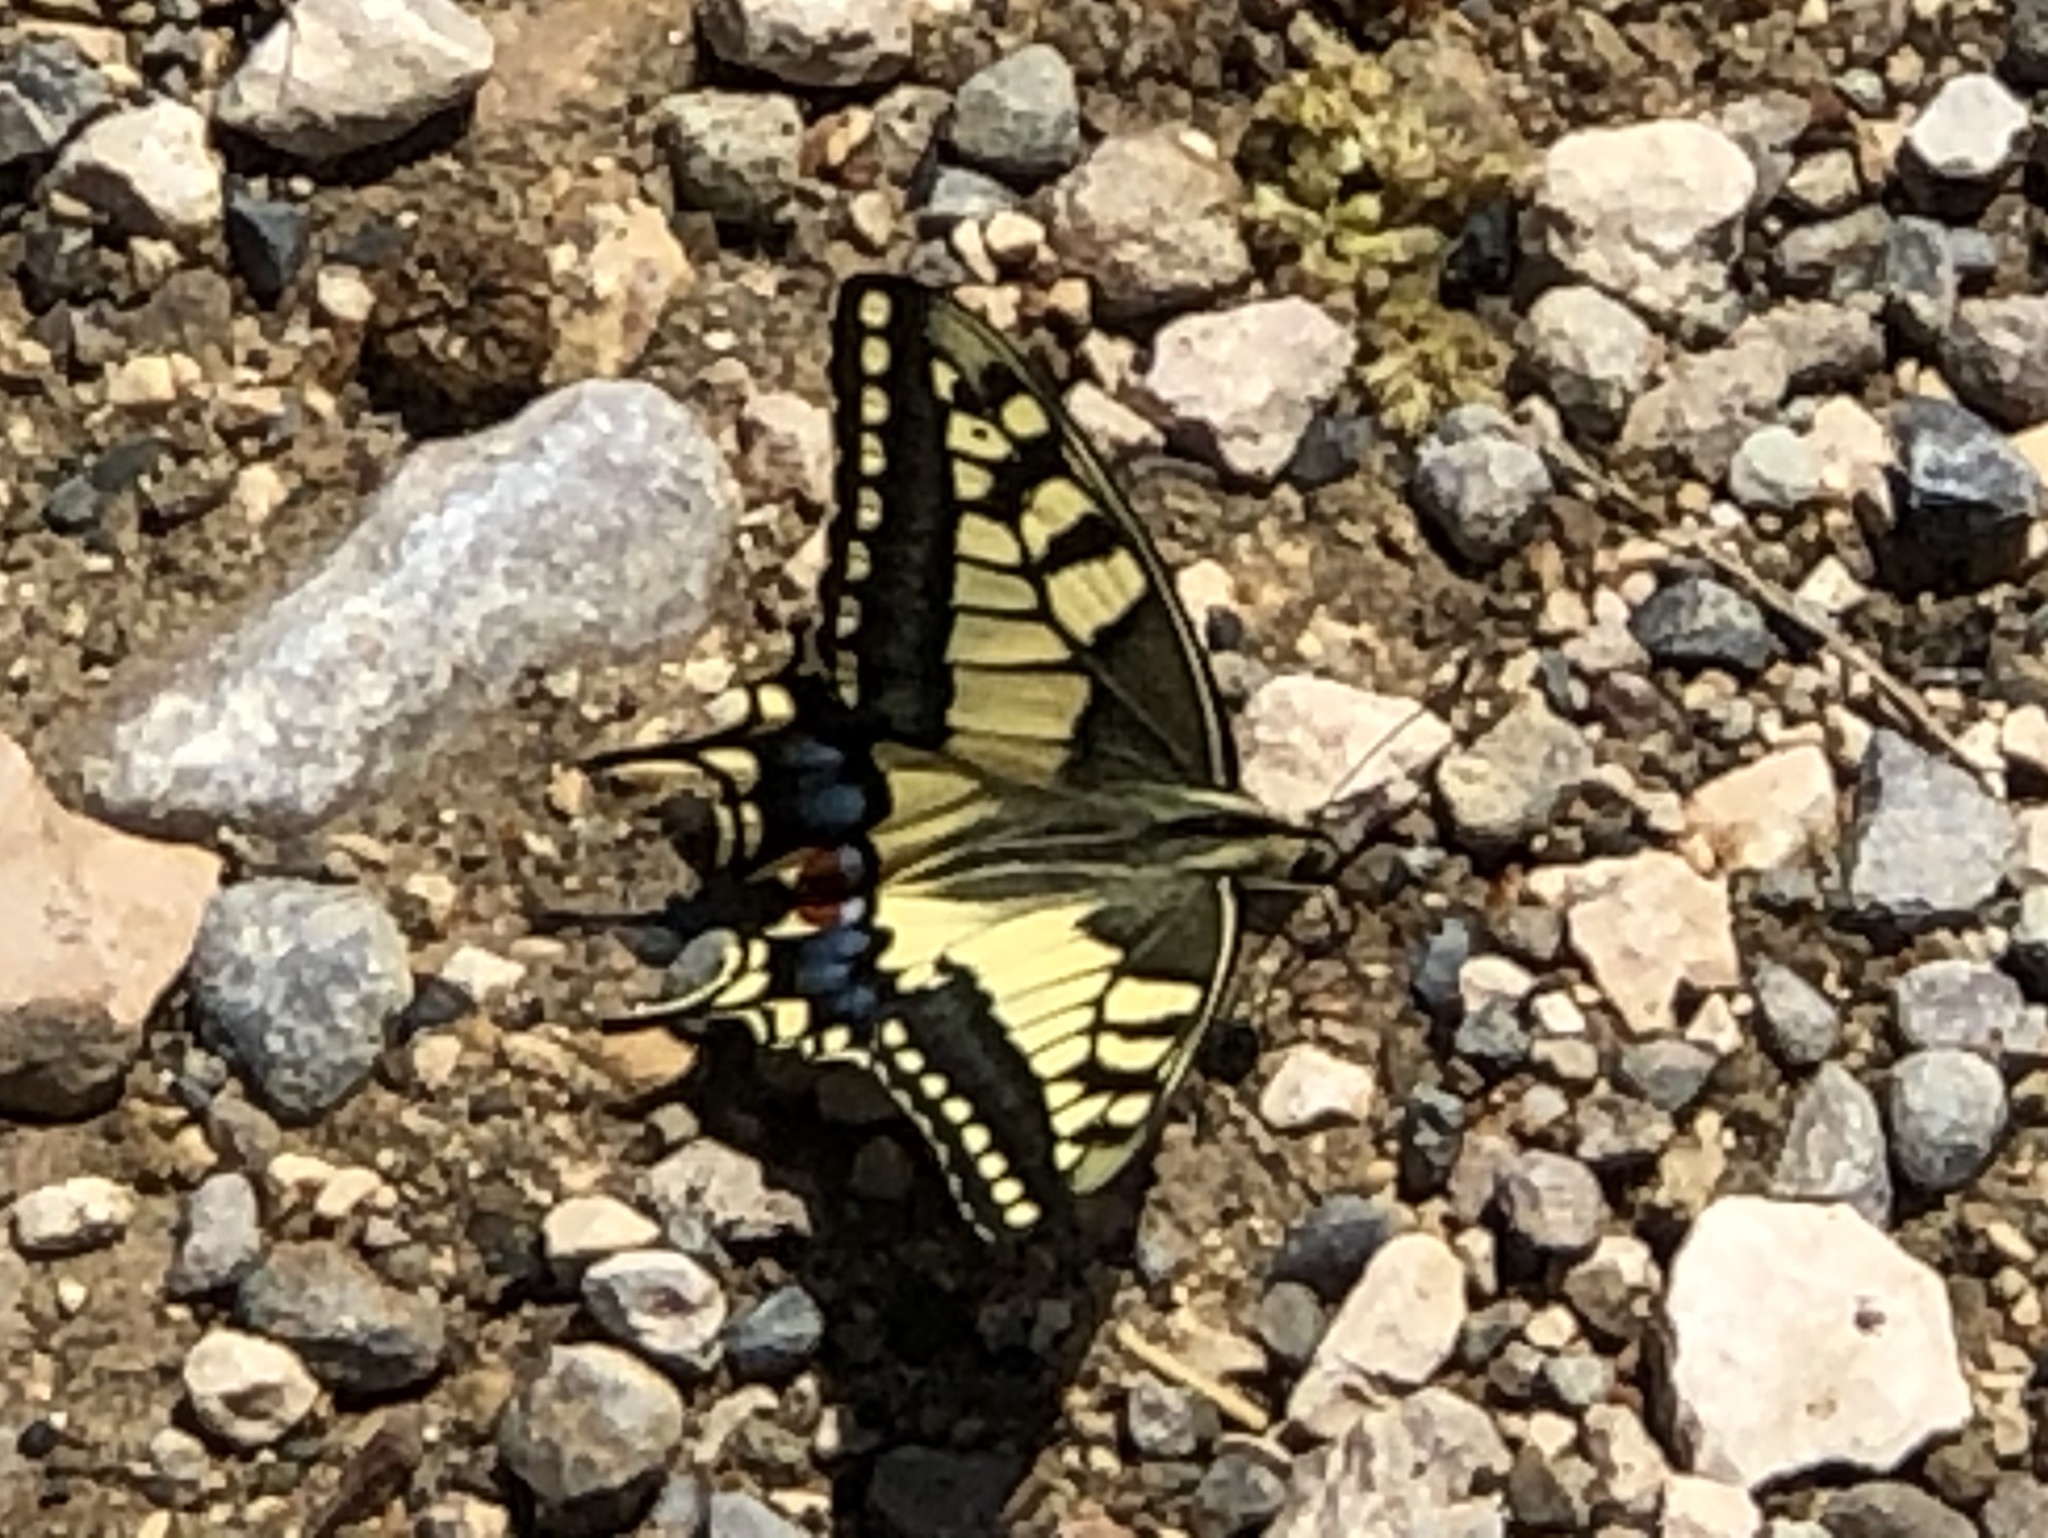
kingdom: Animalia
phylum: Arthropoda
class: Insecta
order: Lepidoptera
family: Papilionidae
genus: Papilio
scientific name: Papilio machaon
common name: Swallowtail
